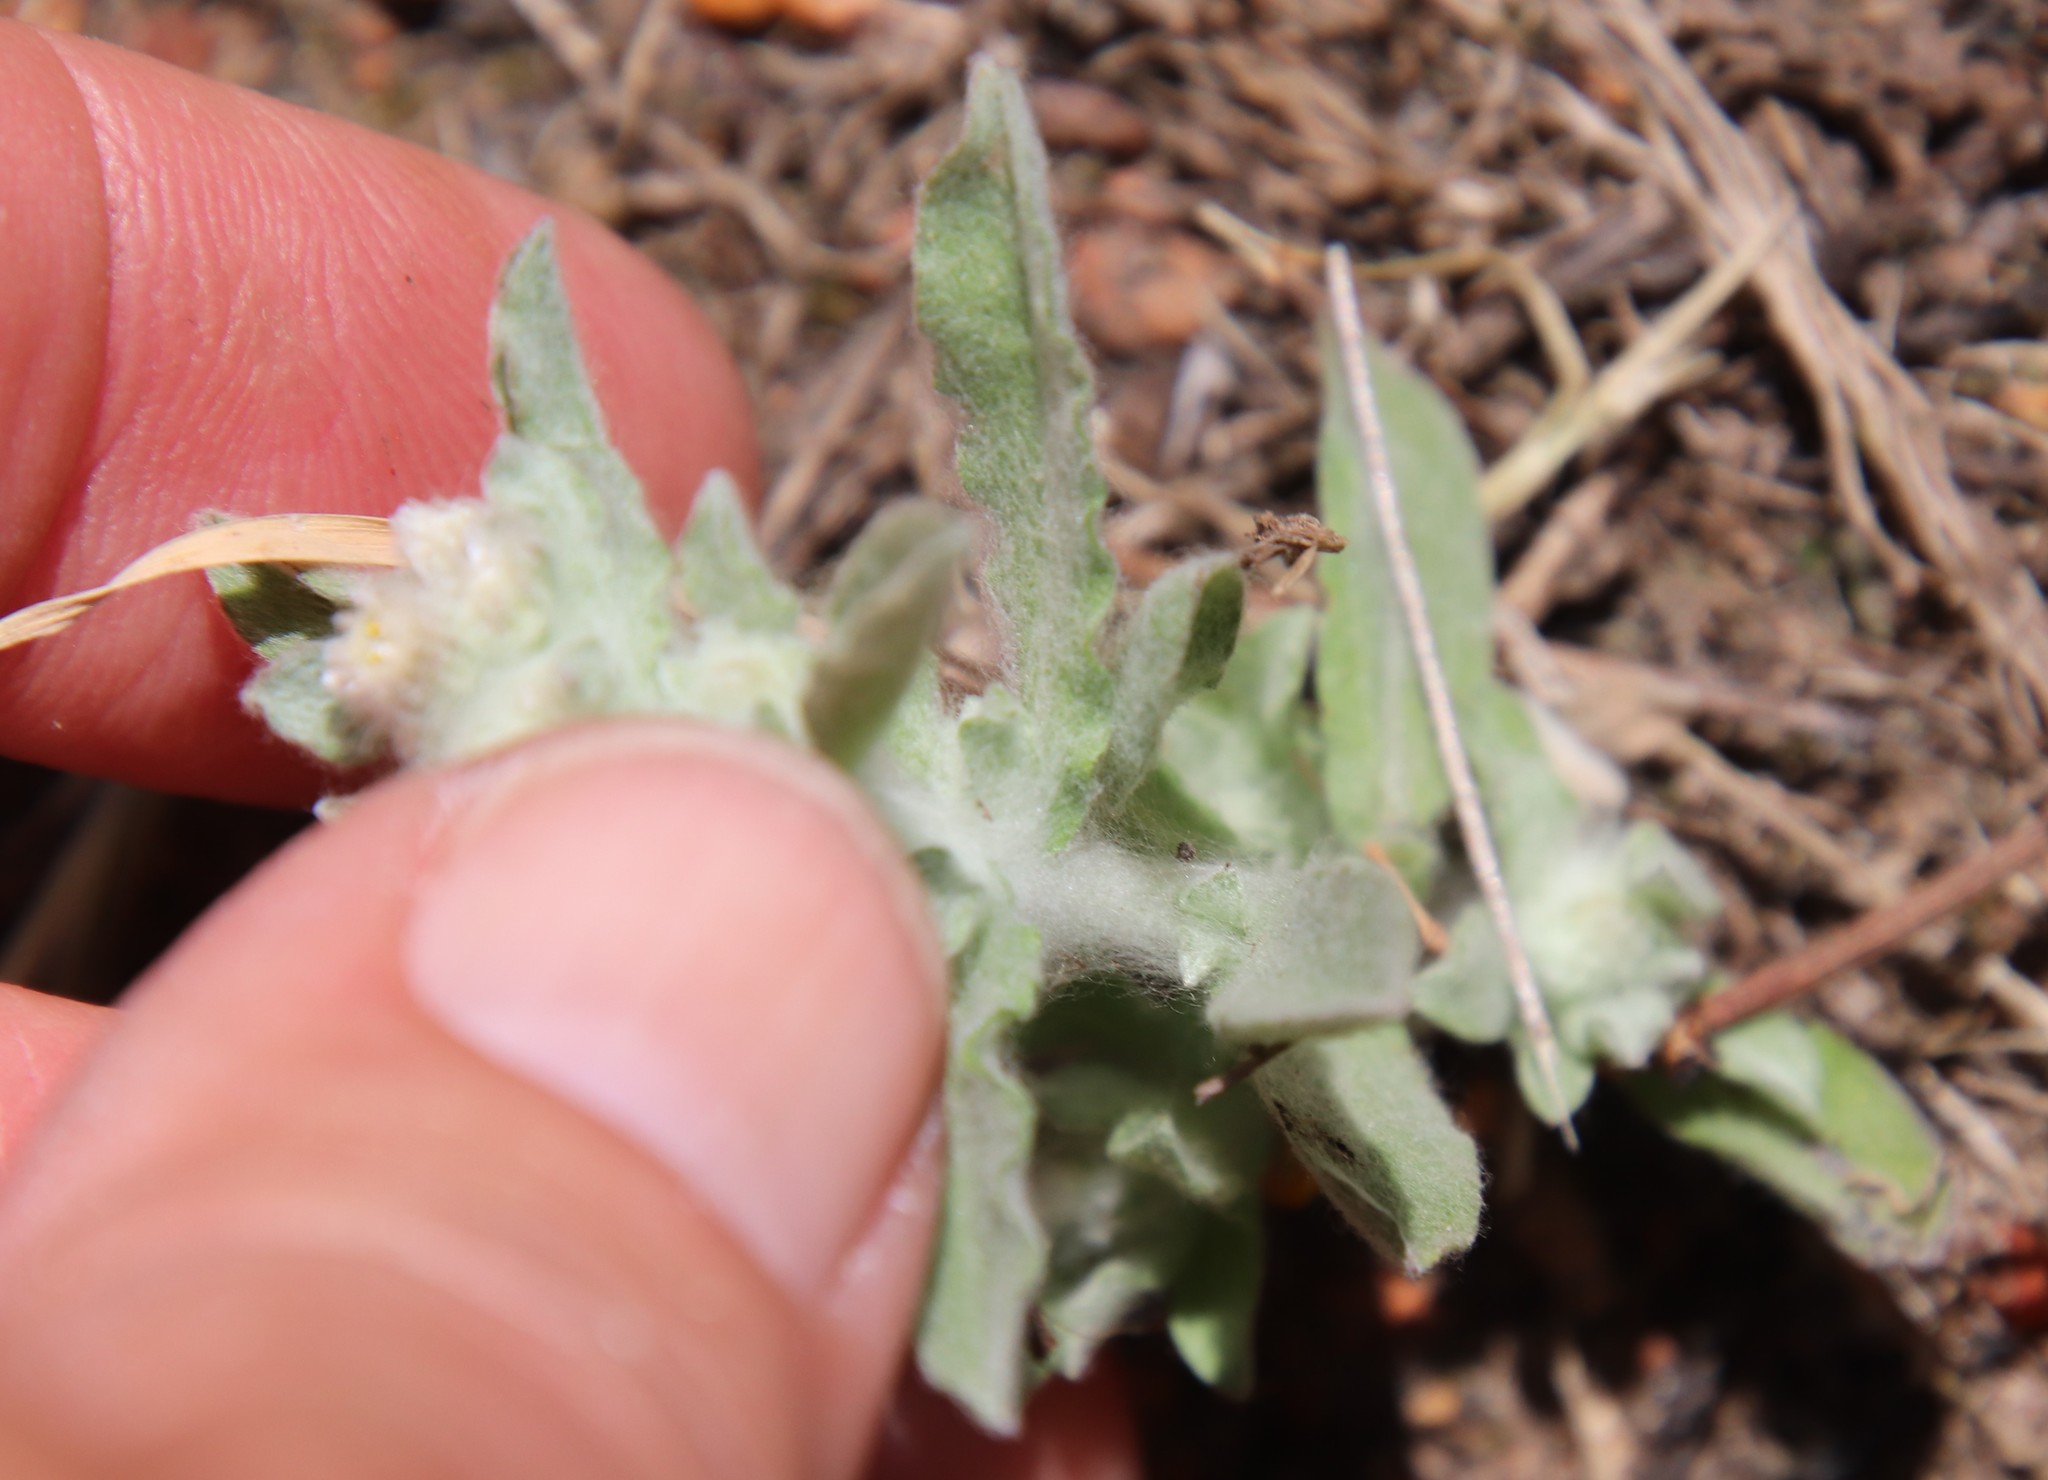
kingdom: Plantae
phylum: Tracheophyta
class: Magnoliopsida
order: Asterales
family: Asteraceae
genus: Gnaphalium
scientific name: Gnaphalium palustre
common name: Western marsh cudweed
